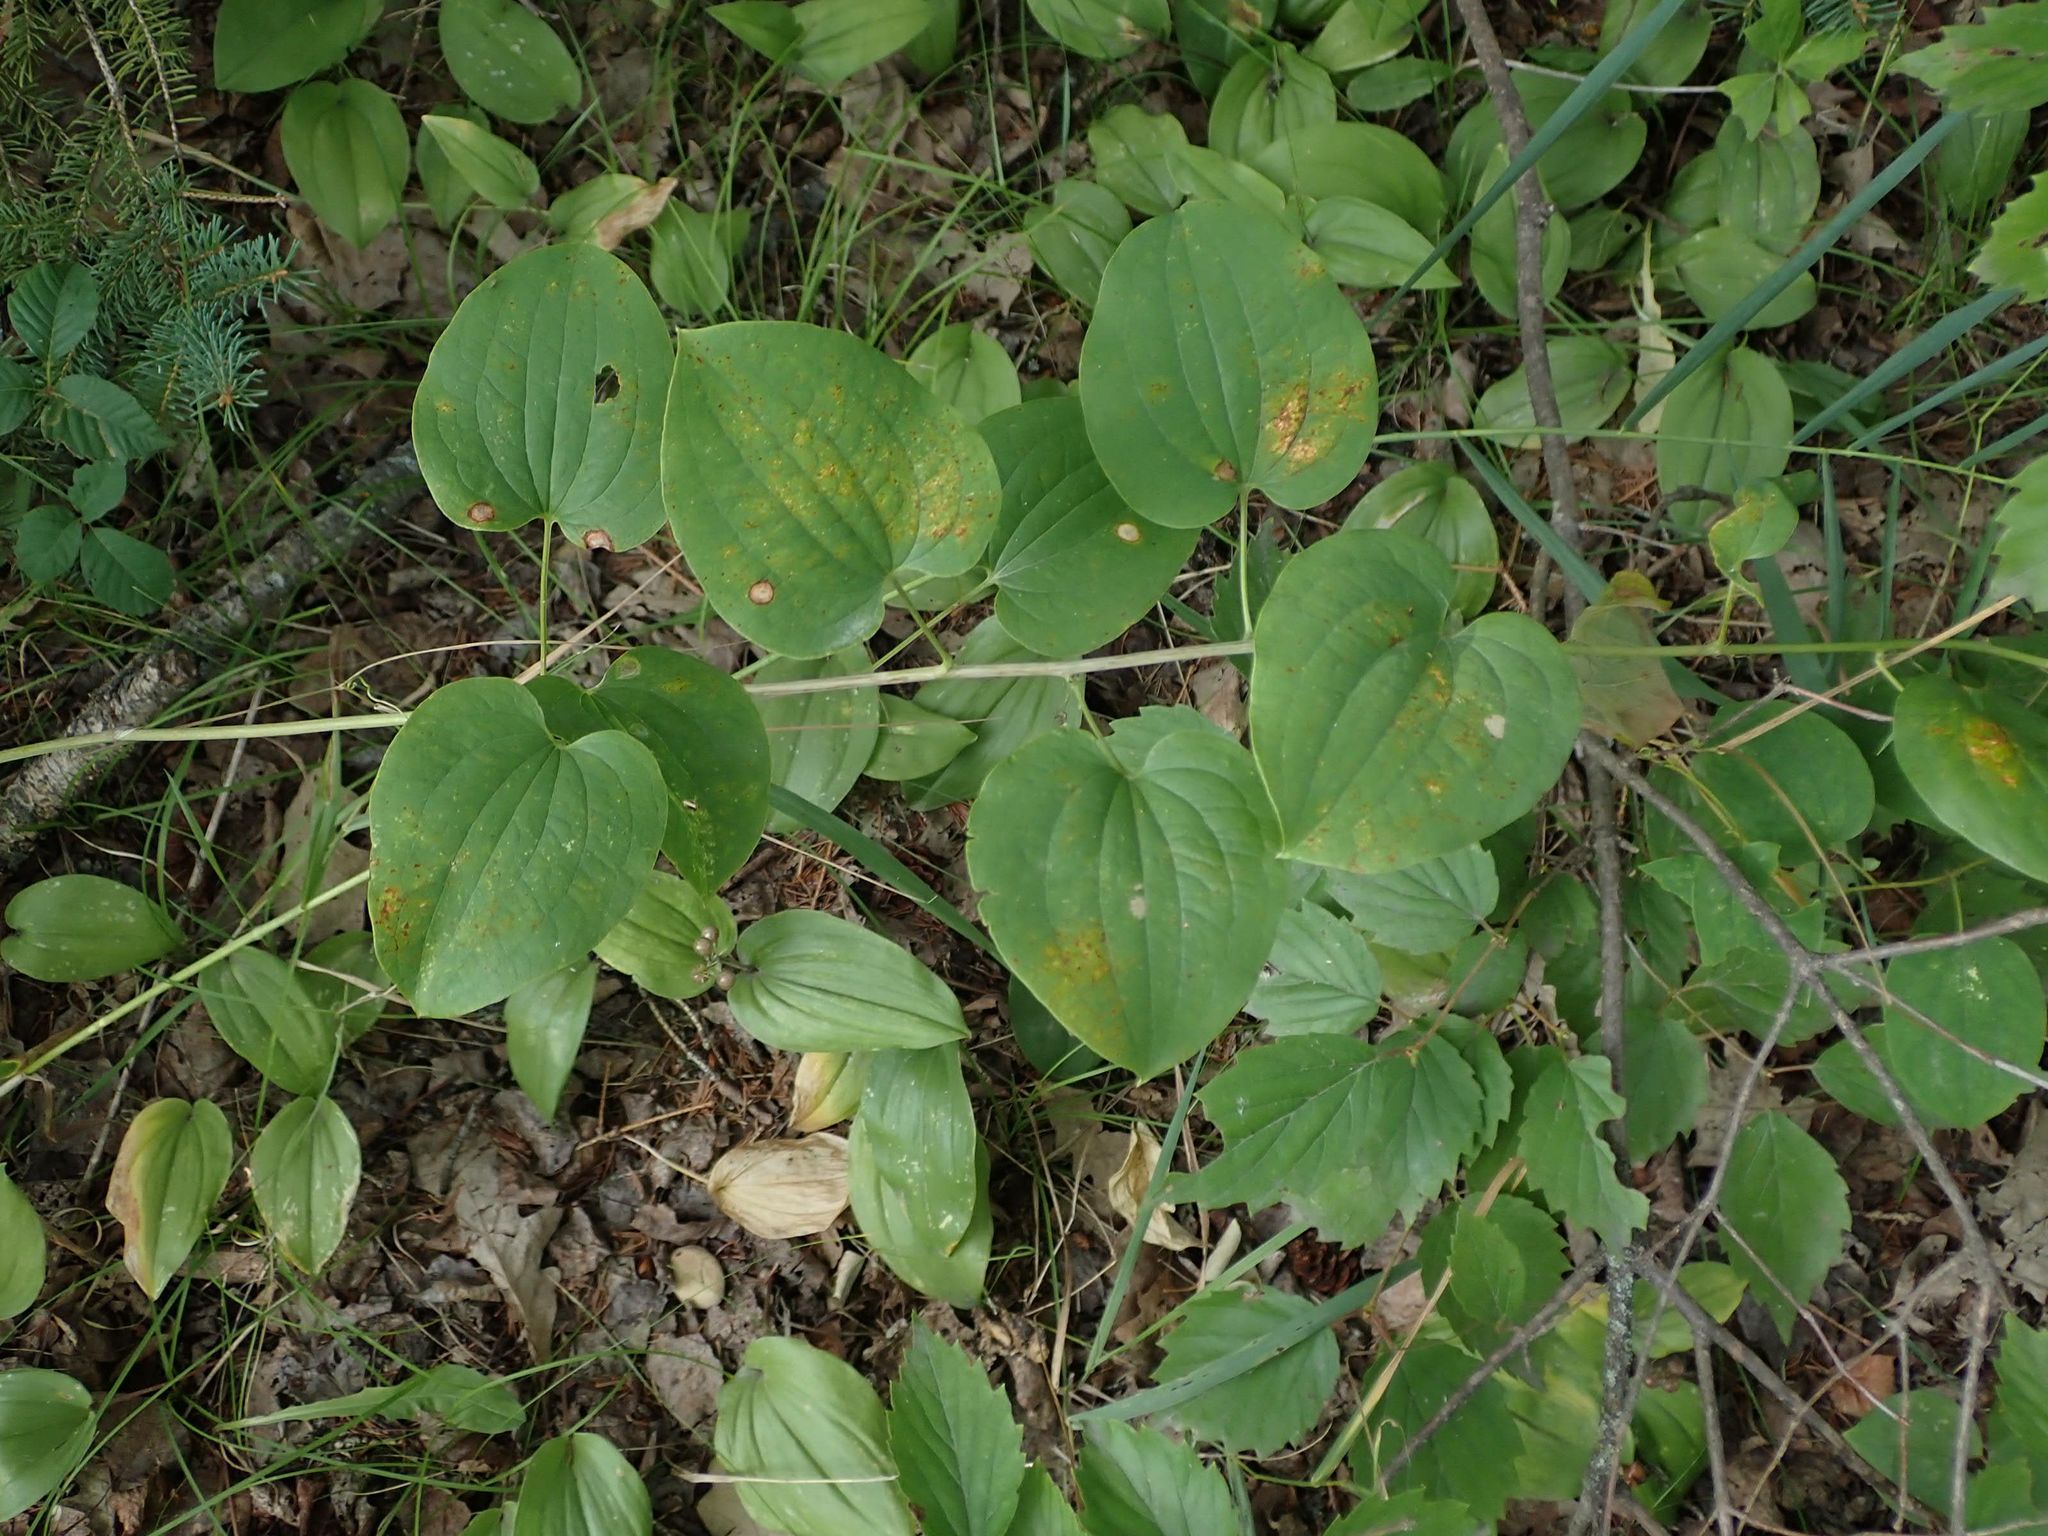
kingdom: Plantae
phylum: Tracheophyta
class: Liliopsida
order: Liliales
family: Smilacaceae
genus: Smilax
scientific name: Smilax lasioneura
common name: Blue ridge carrionflower
